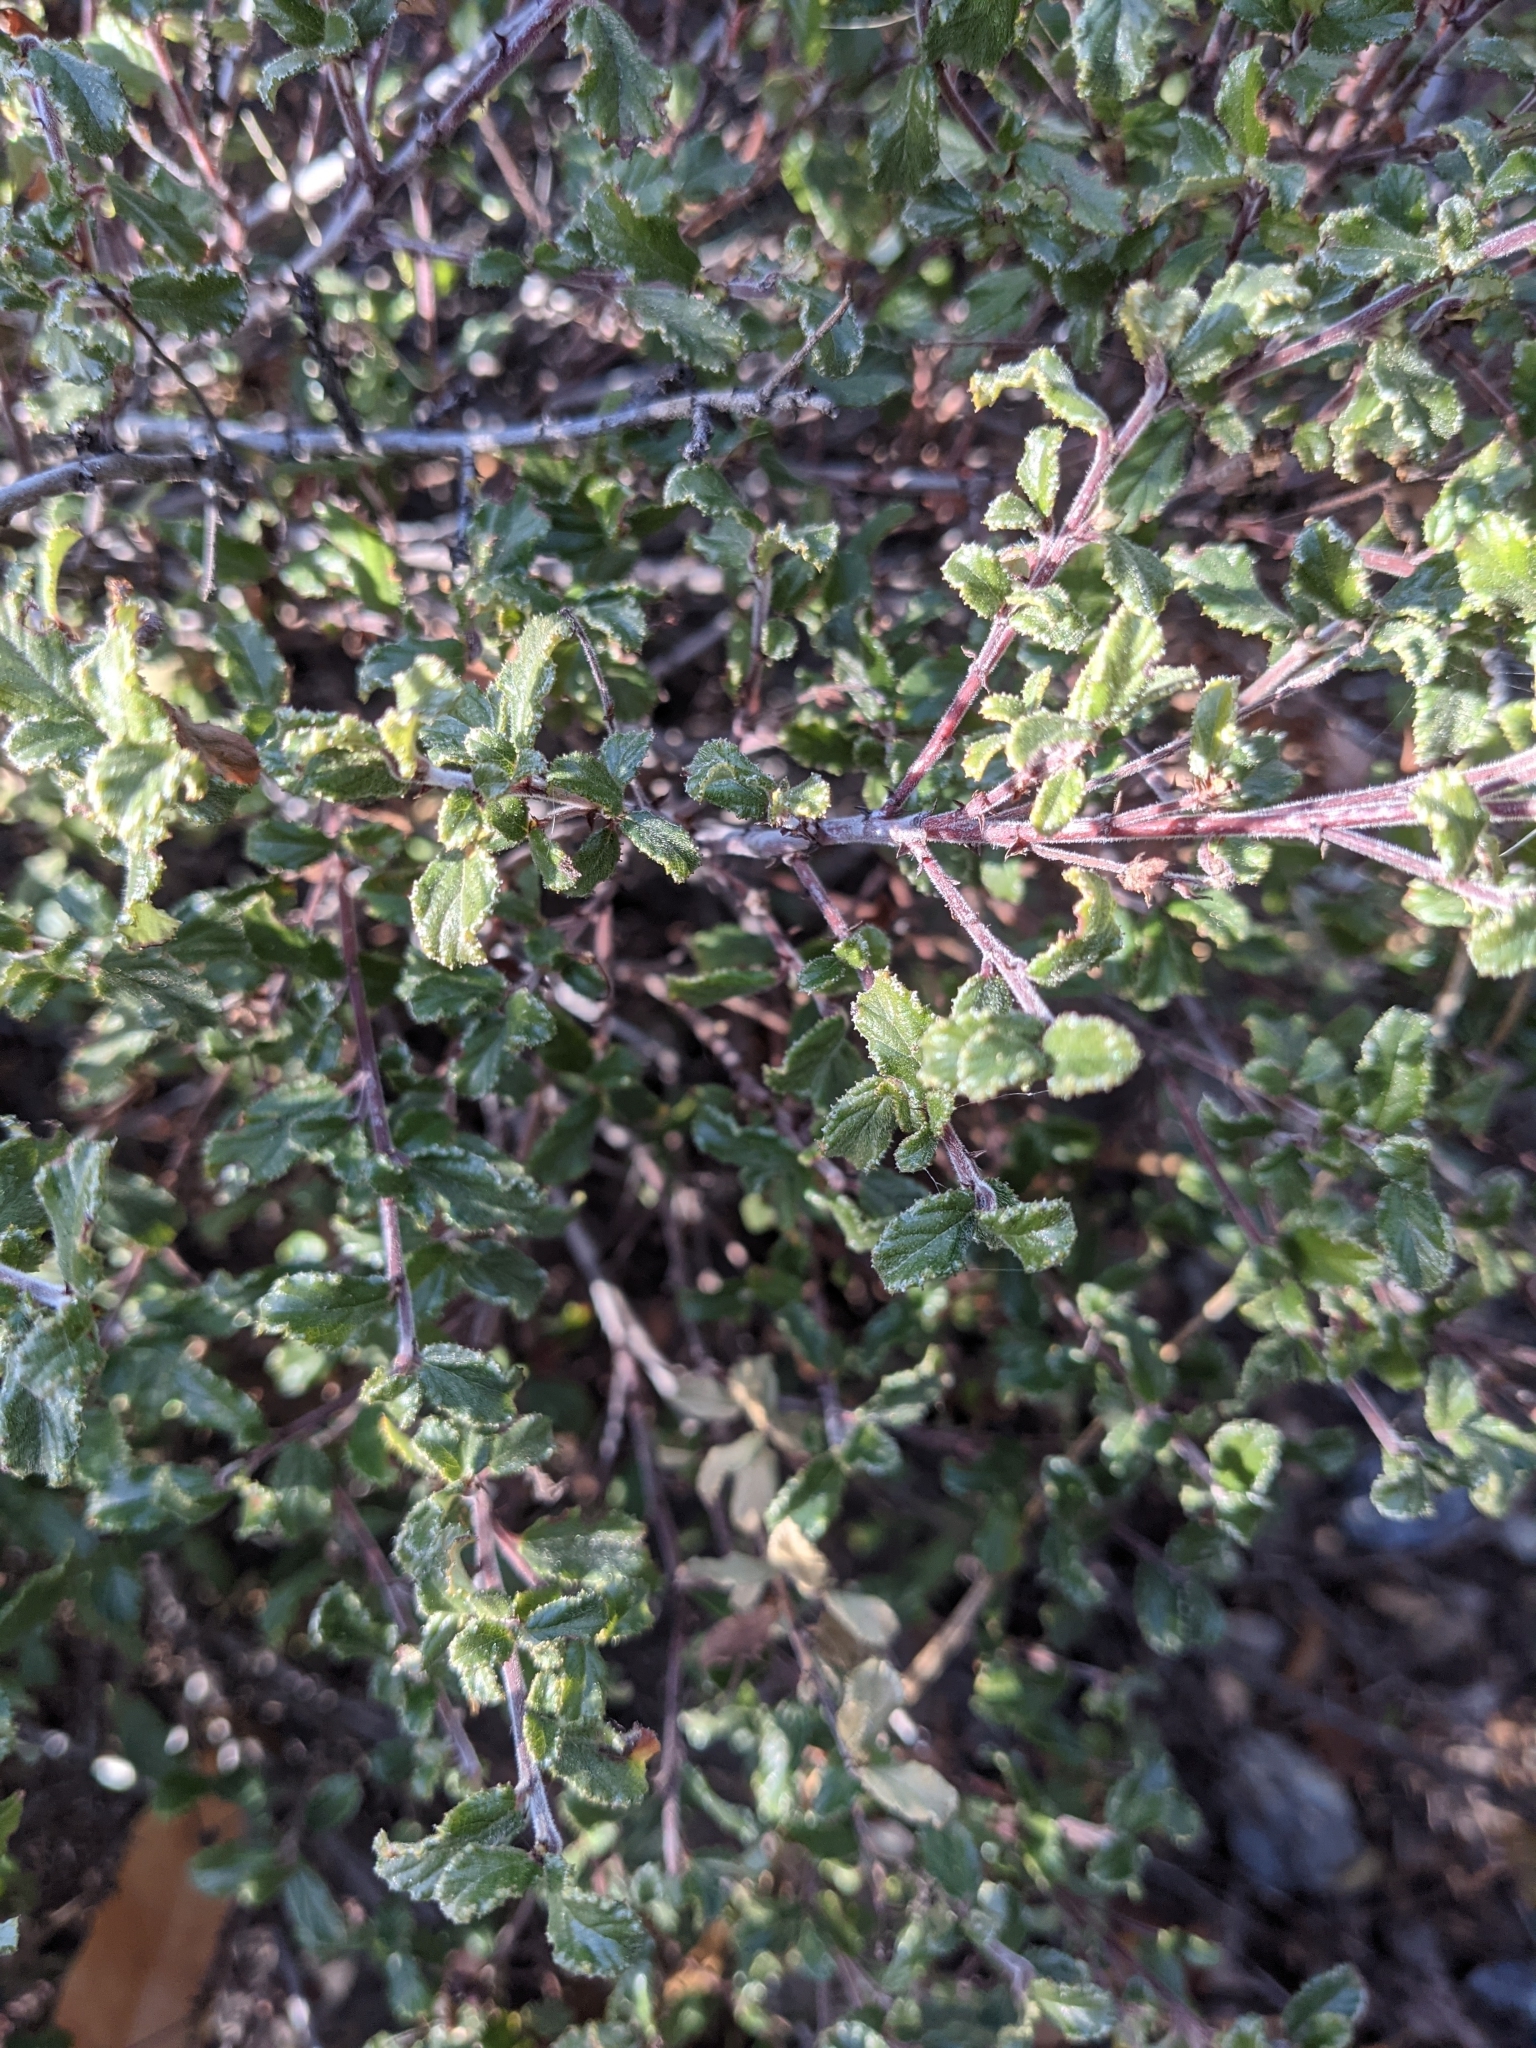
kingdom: Plantae
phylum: Tracheophyta
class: Magnoliopsida
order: Rosales
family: Rhamnaceae
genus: Ceanothus
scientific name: Ceanothus foliosus
